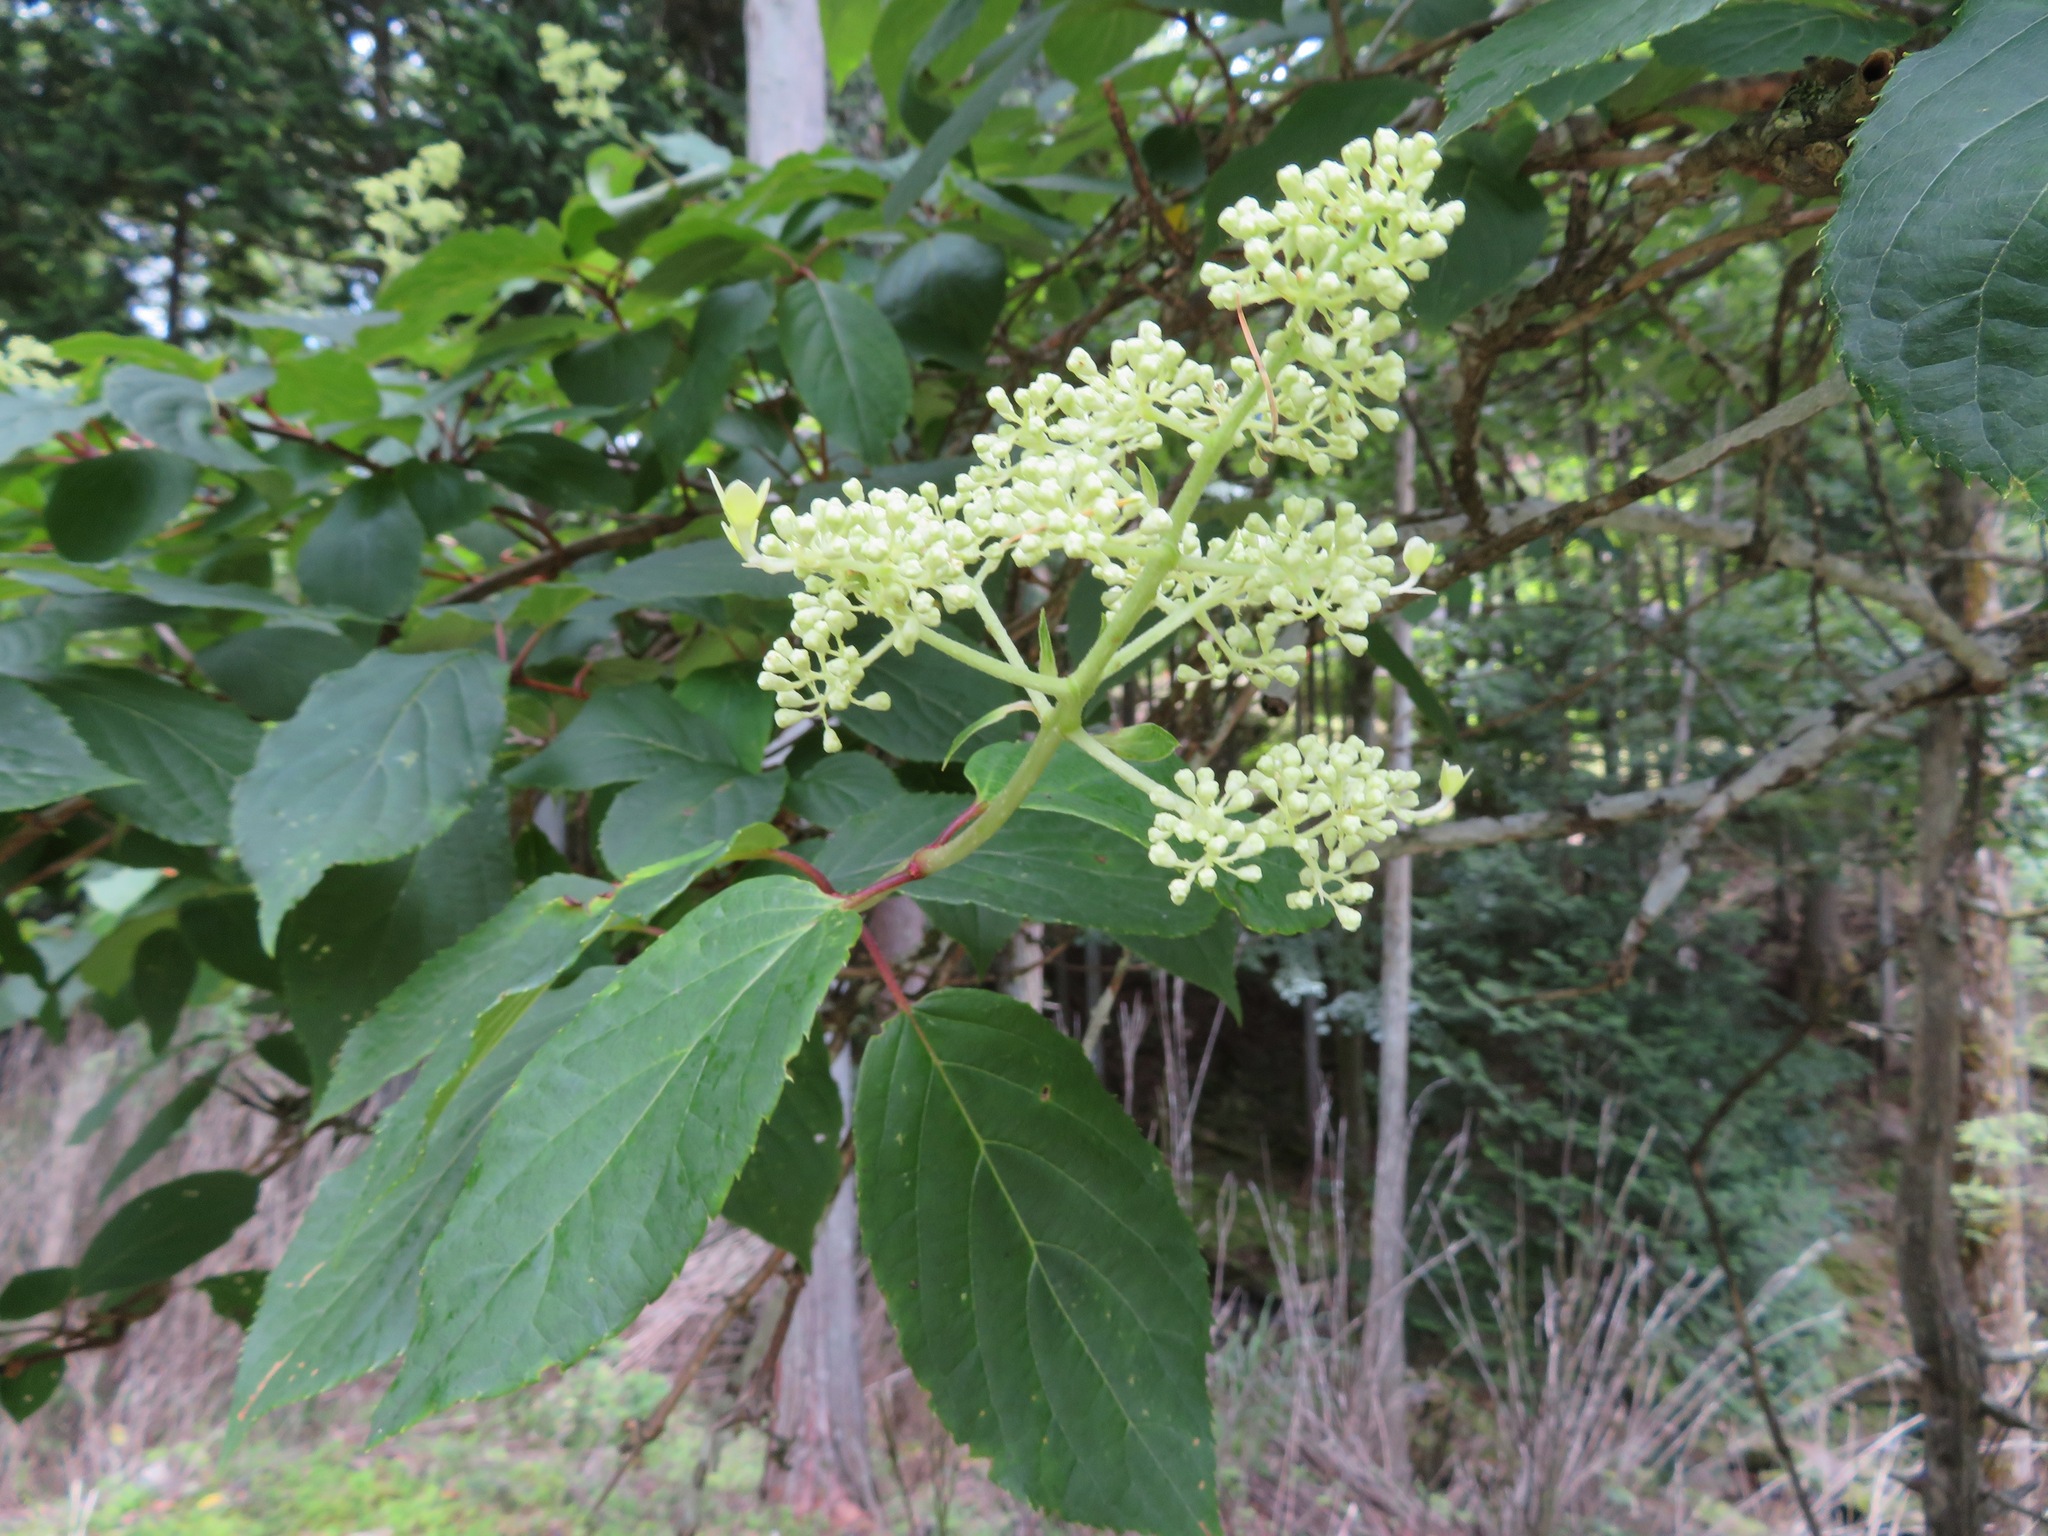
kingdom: Plantae
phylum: Tracheophyta
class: Magnoliopsida
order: Cornales
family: Hydrangeaceae
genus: Hydrangea
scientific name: Hydrangea paniculata
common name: Panicled hydrangea
